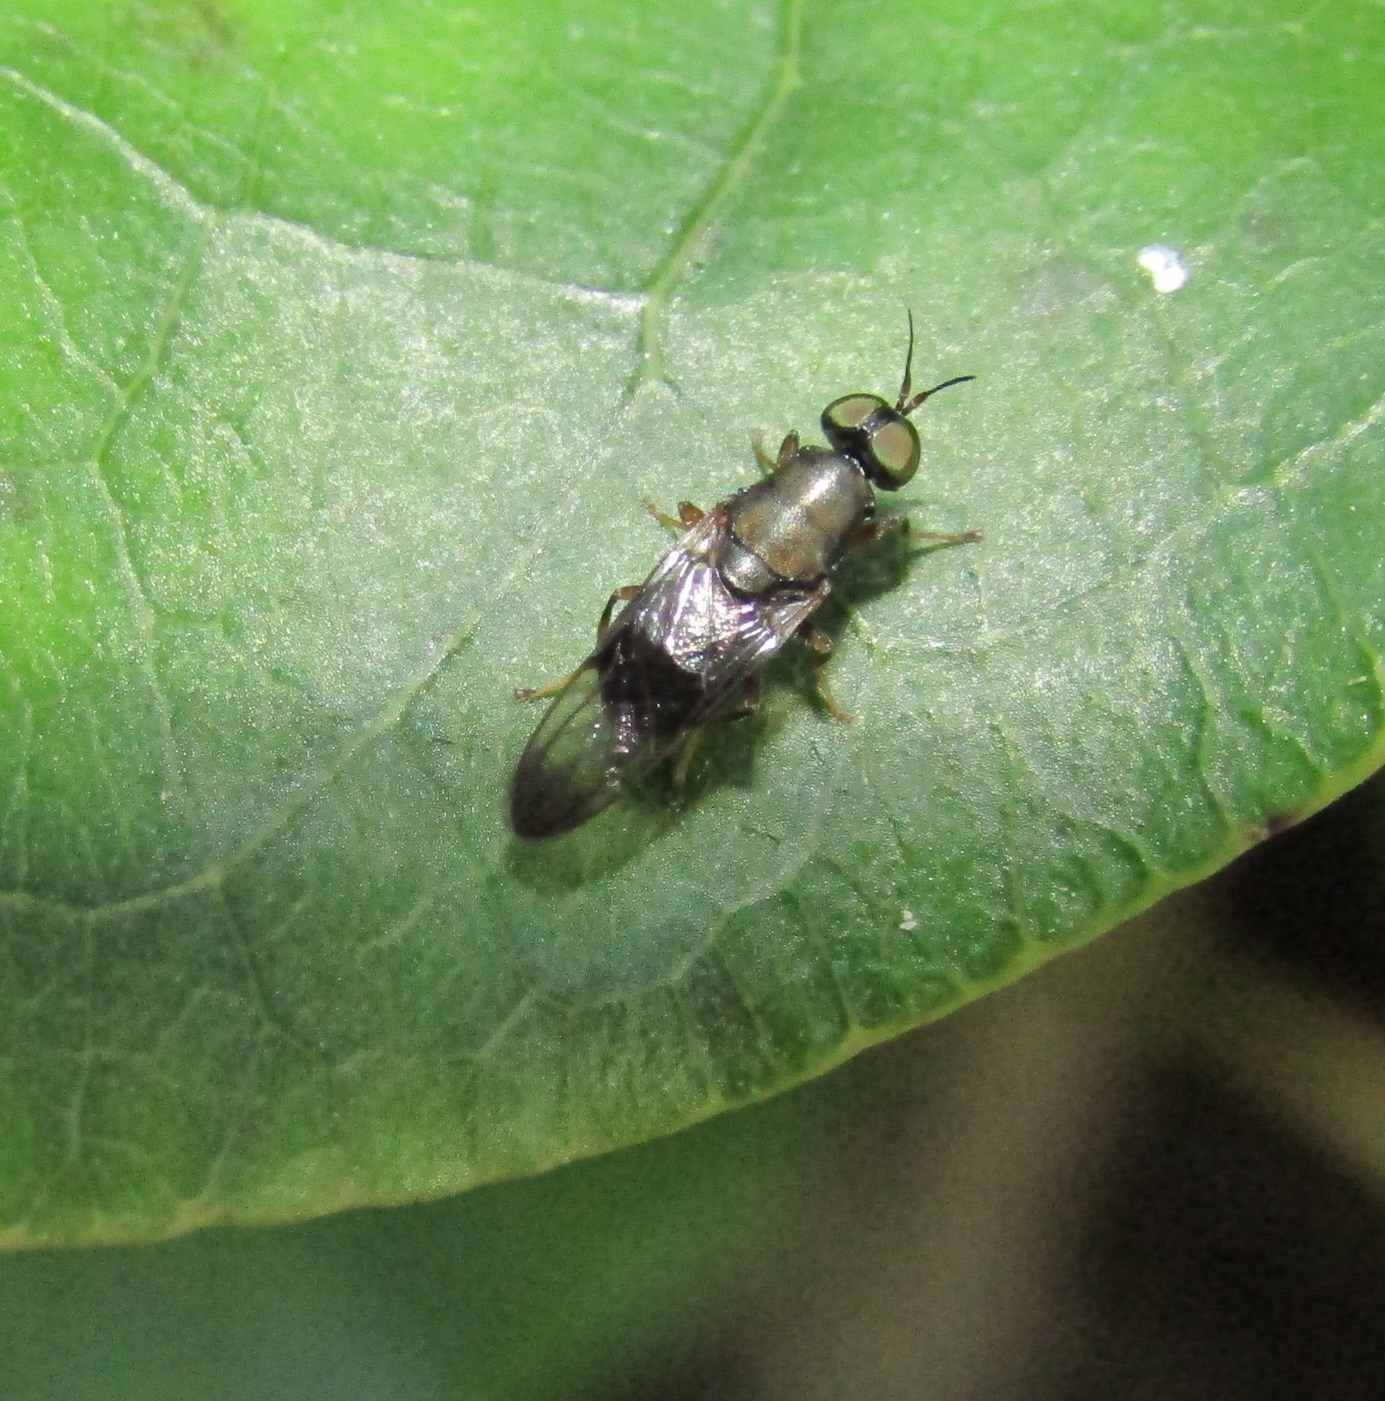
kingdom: Animalia
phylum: Arthropoda
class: Insecta
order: Diptera
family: Stratiomyidae
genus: Dysbiota
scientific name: Dysbiota peregrina
